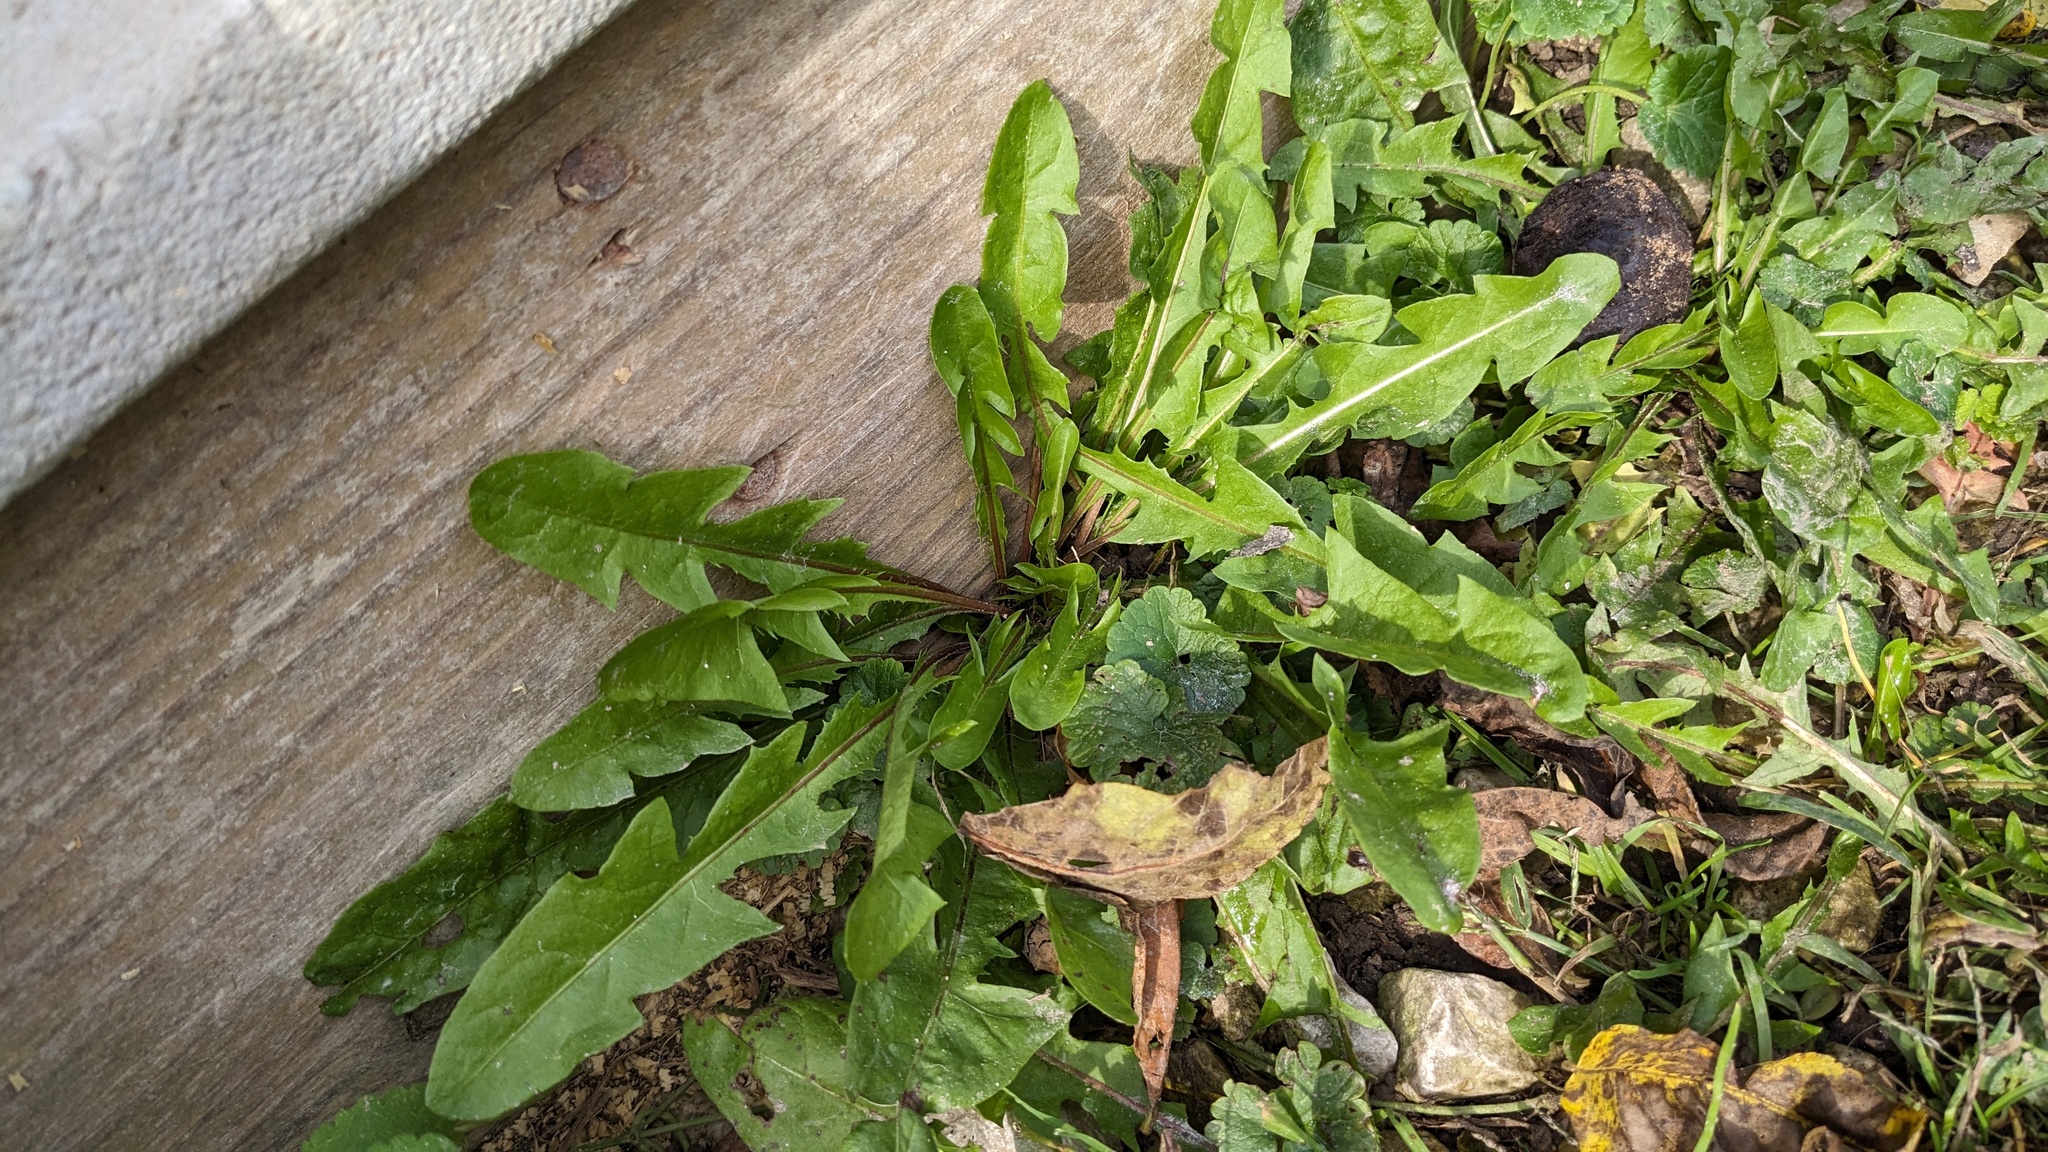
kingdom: Plantae
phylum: Tracheophyta
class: Magnoliopsida
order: Asterales
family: Asteraceae
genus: Taraxacum
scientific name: Taraxacum
